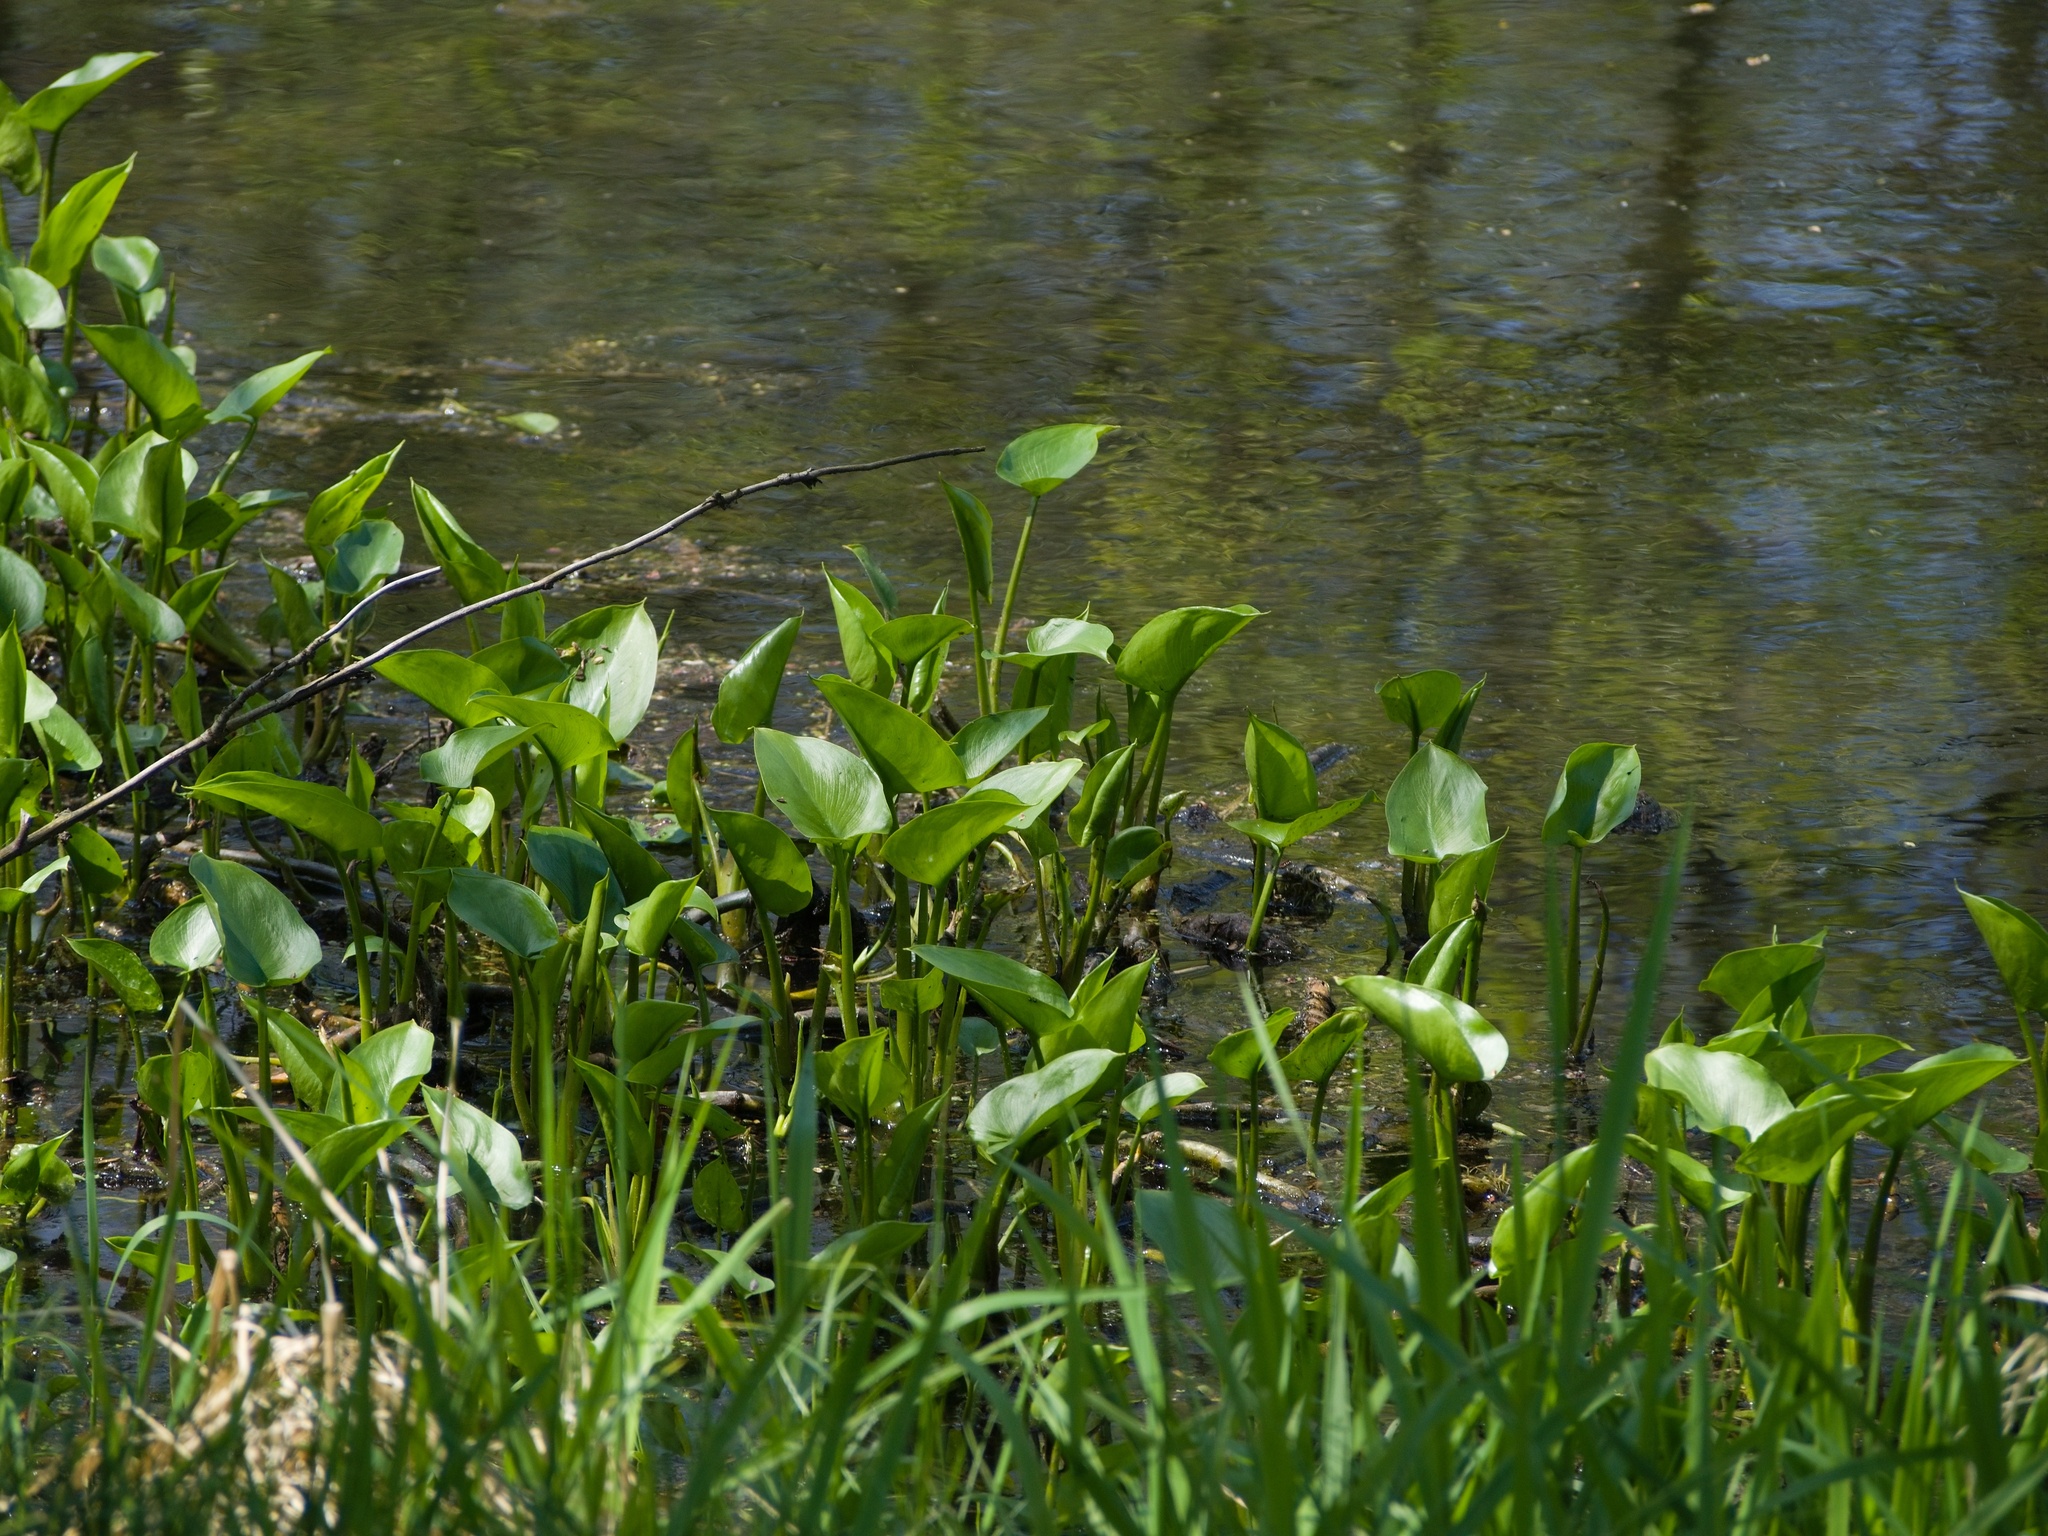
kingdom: Plantae
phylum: Tracheophyta
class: Liliopsida
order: Alismatales
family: Araceae
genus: Calla
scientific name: Calla palustris
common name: Bog arum
